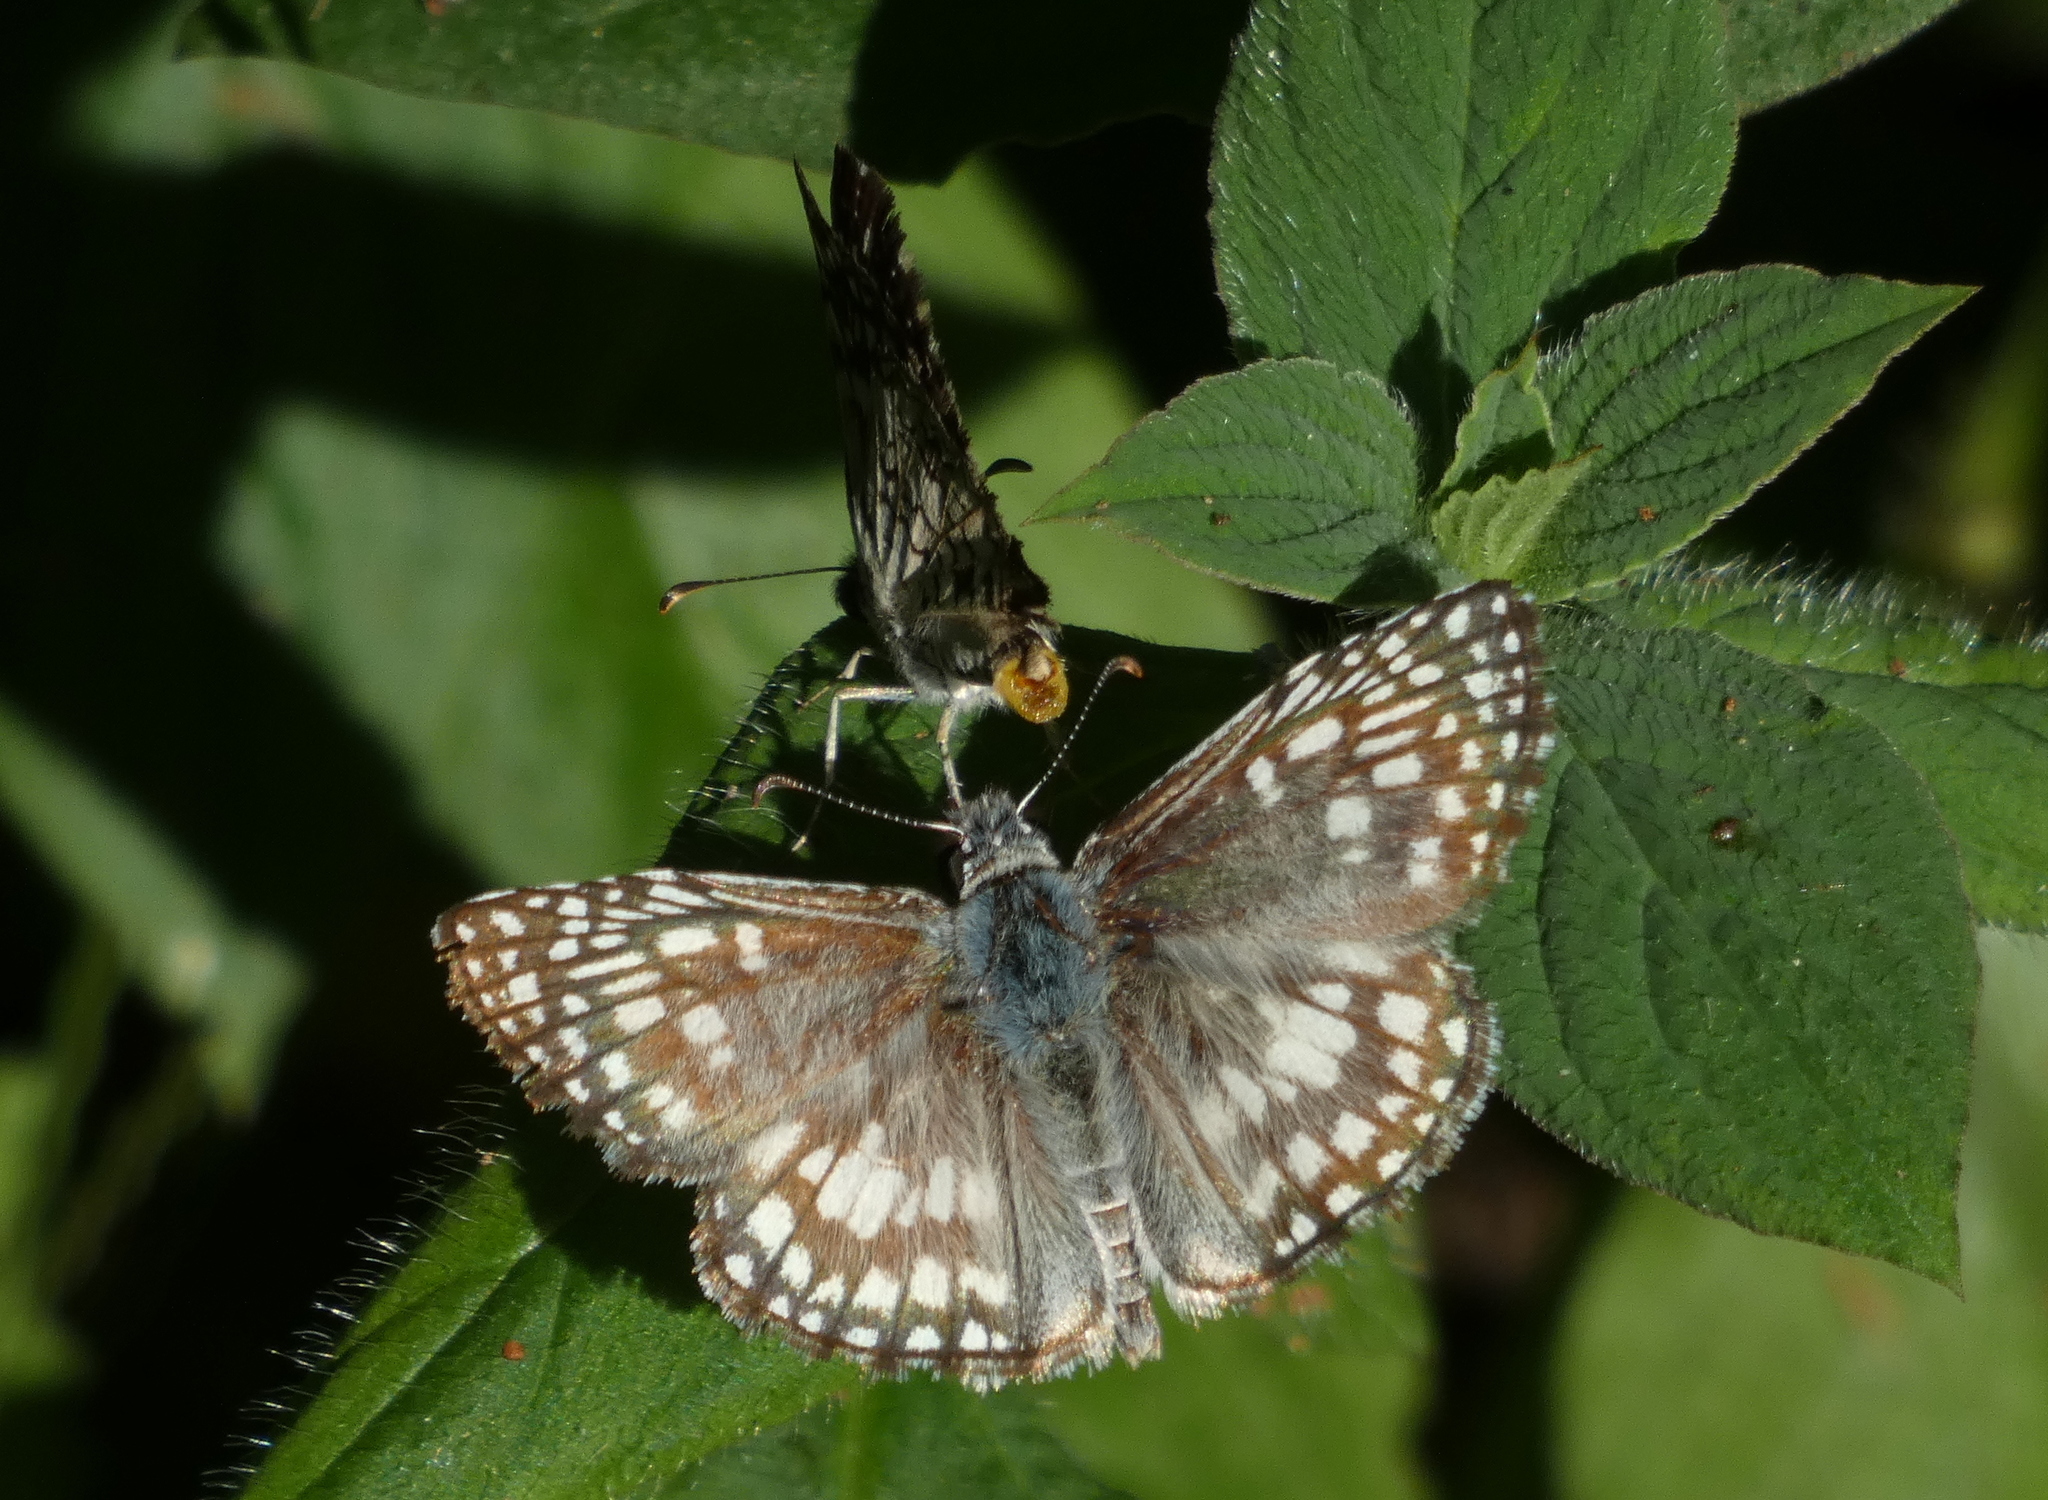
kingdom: Animalia
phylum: Arthropoda
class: Insecta
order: Lepidoptera
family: Hesperiidae
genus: Pyrgus
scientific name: Pyrgus oileus
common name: Tropical checkered-skipper
